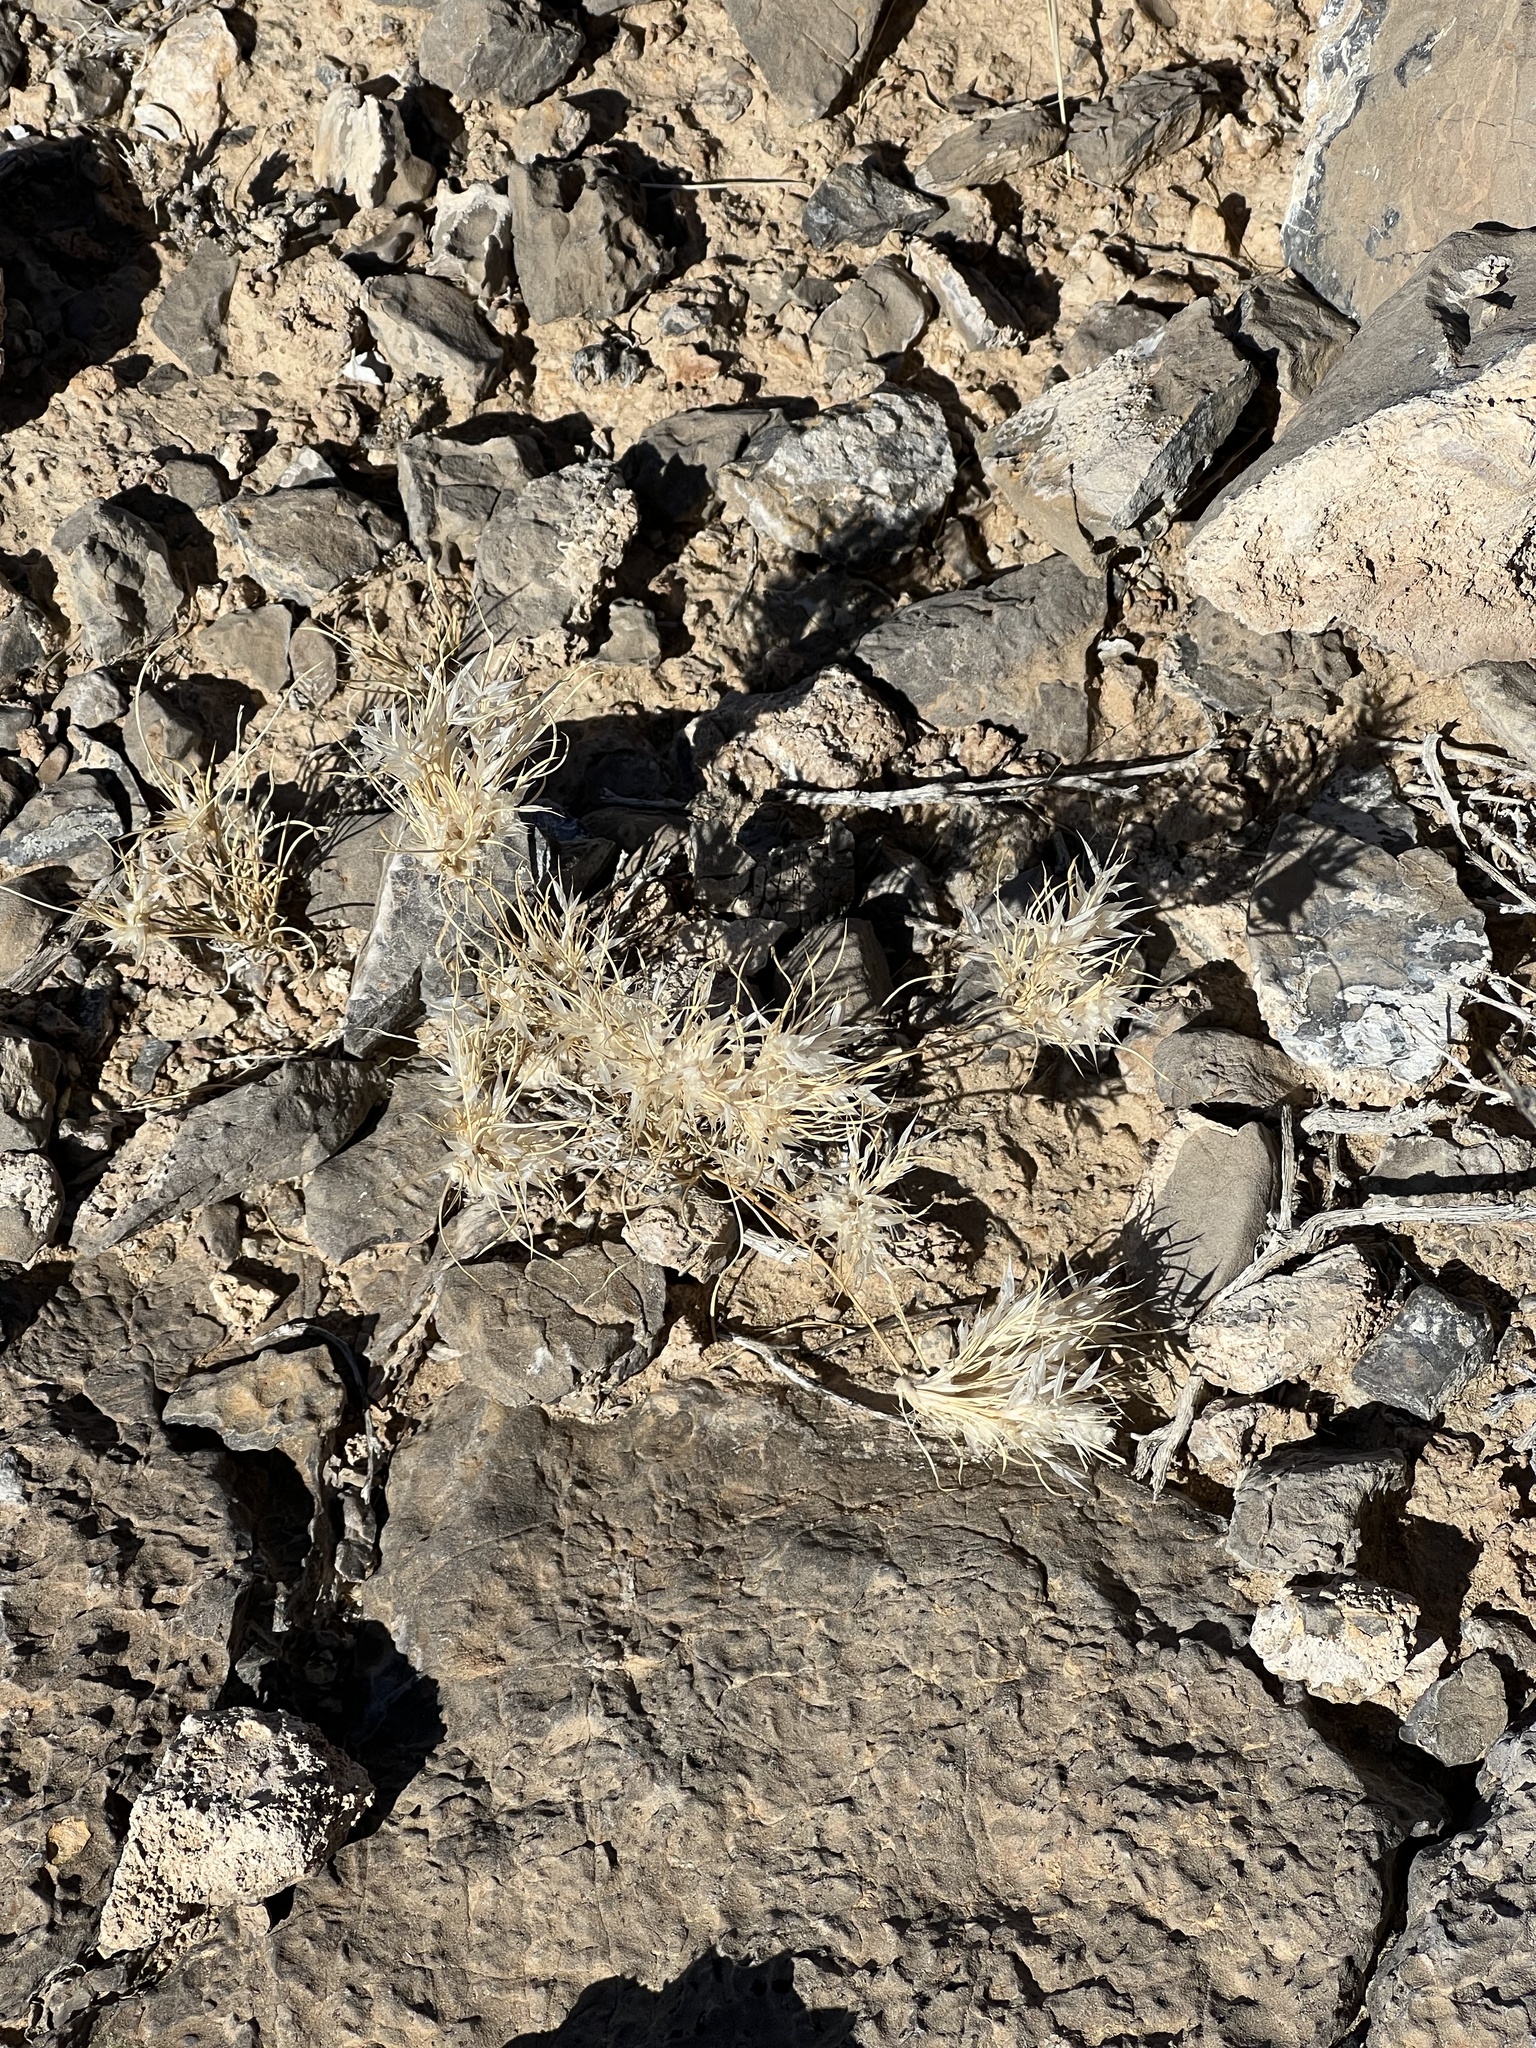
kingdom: Plantae
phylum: Tracheophyta
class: Liliopsida
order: Poales
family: Poaceae
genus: Dasyochloa
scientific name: Dasyochloa pulchella
